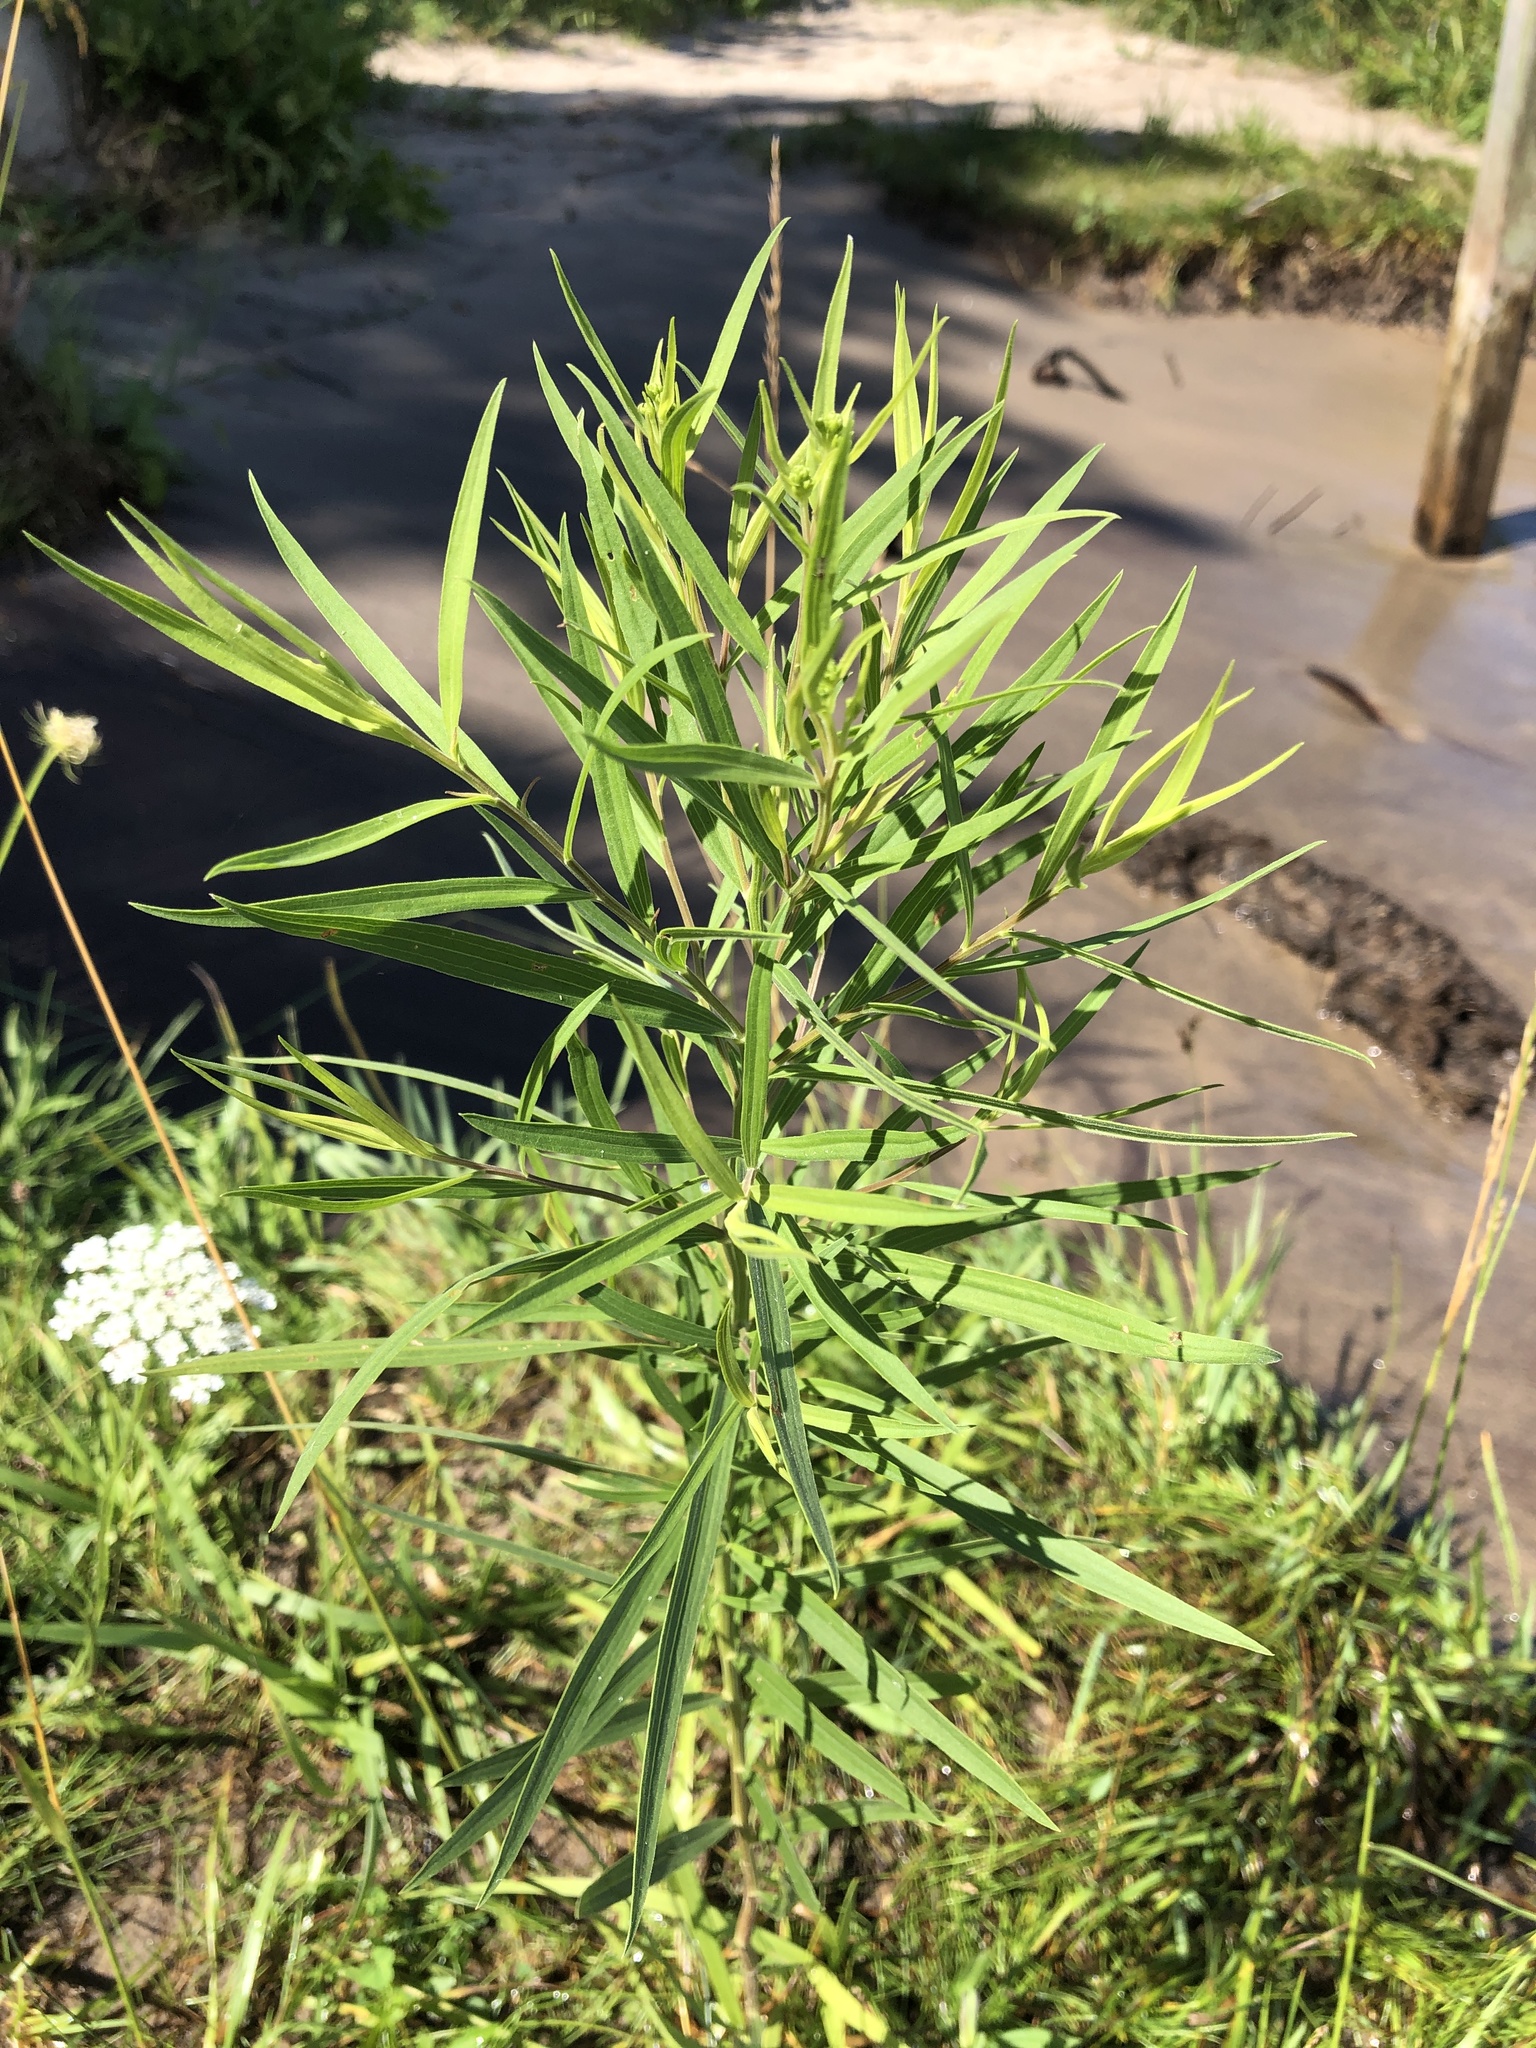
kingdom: Plantae
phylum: Tracheophyta
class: Magnoliopsida
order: Asterales
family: Asteraceae
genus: Euthamia
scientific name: Euthamia graminifolia
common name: Common goldentop
